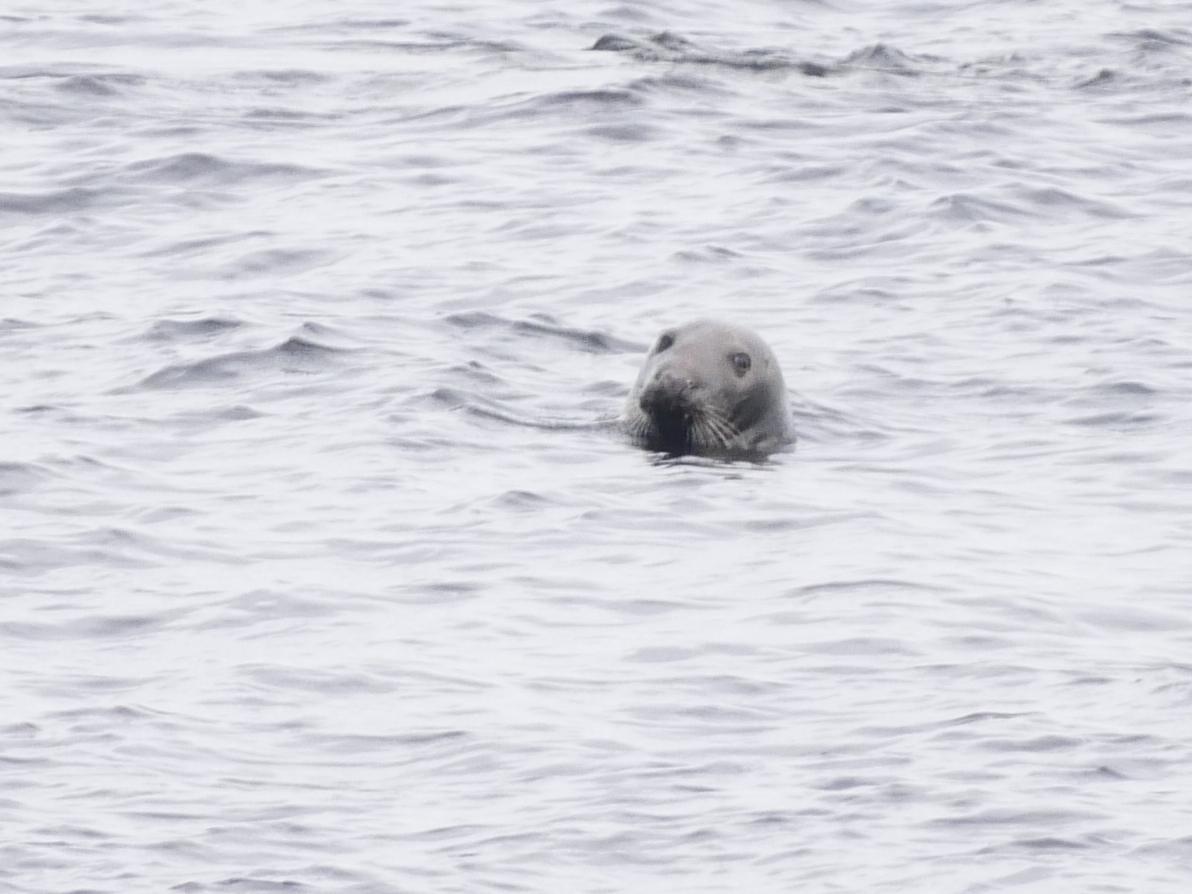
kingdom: Animalia
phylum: Chordata
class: Mammalia
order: Carnivora
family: Phocidae
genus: Halichoerus
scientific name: Halichoerus grypus
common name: Grey seal
